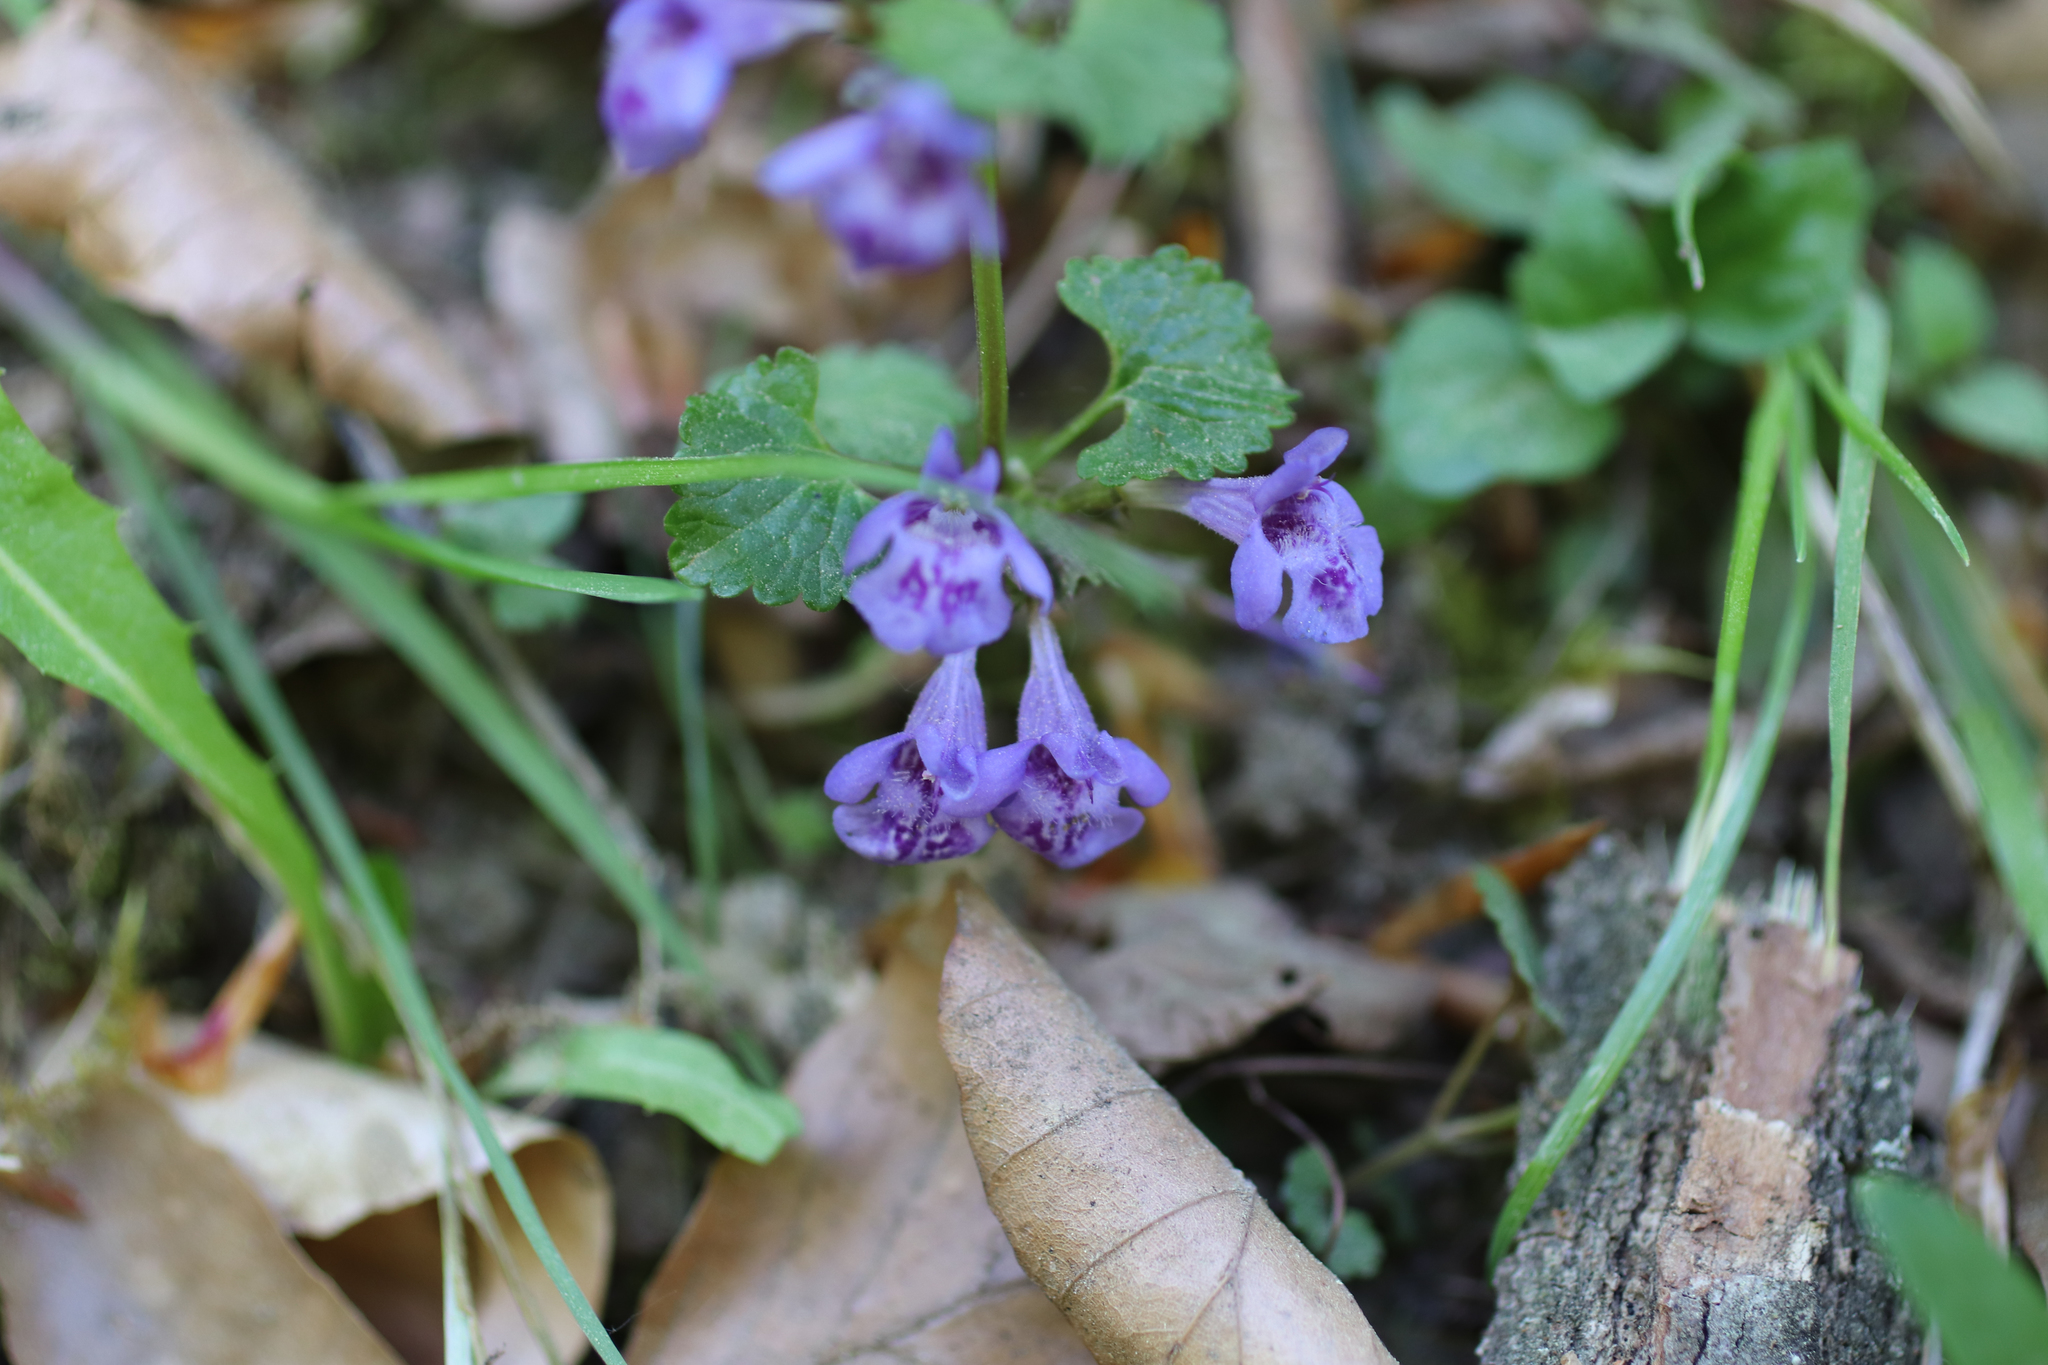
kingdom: Plantae
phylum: Tracheophyta
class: Magnoliopsida
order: Lamiales
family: Lamiaceae
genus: Glechoma
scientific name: Glechoma hederacea
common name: Ground ivy
